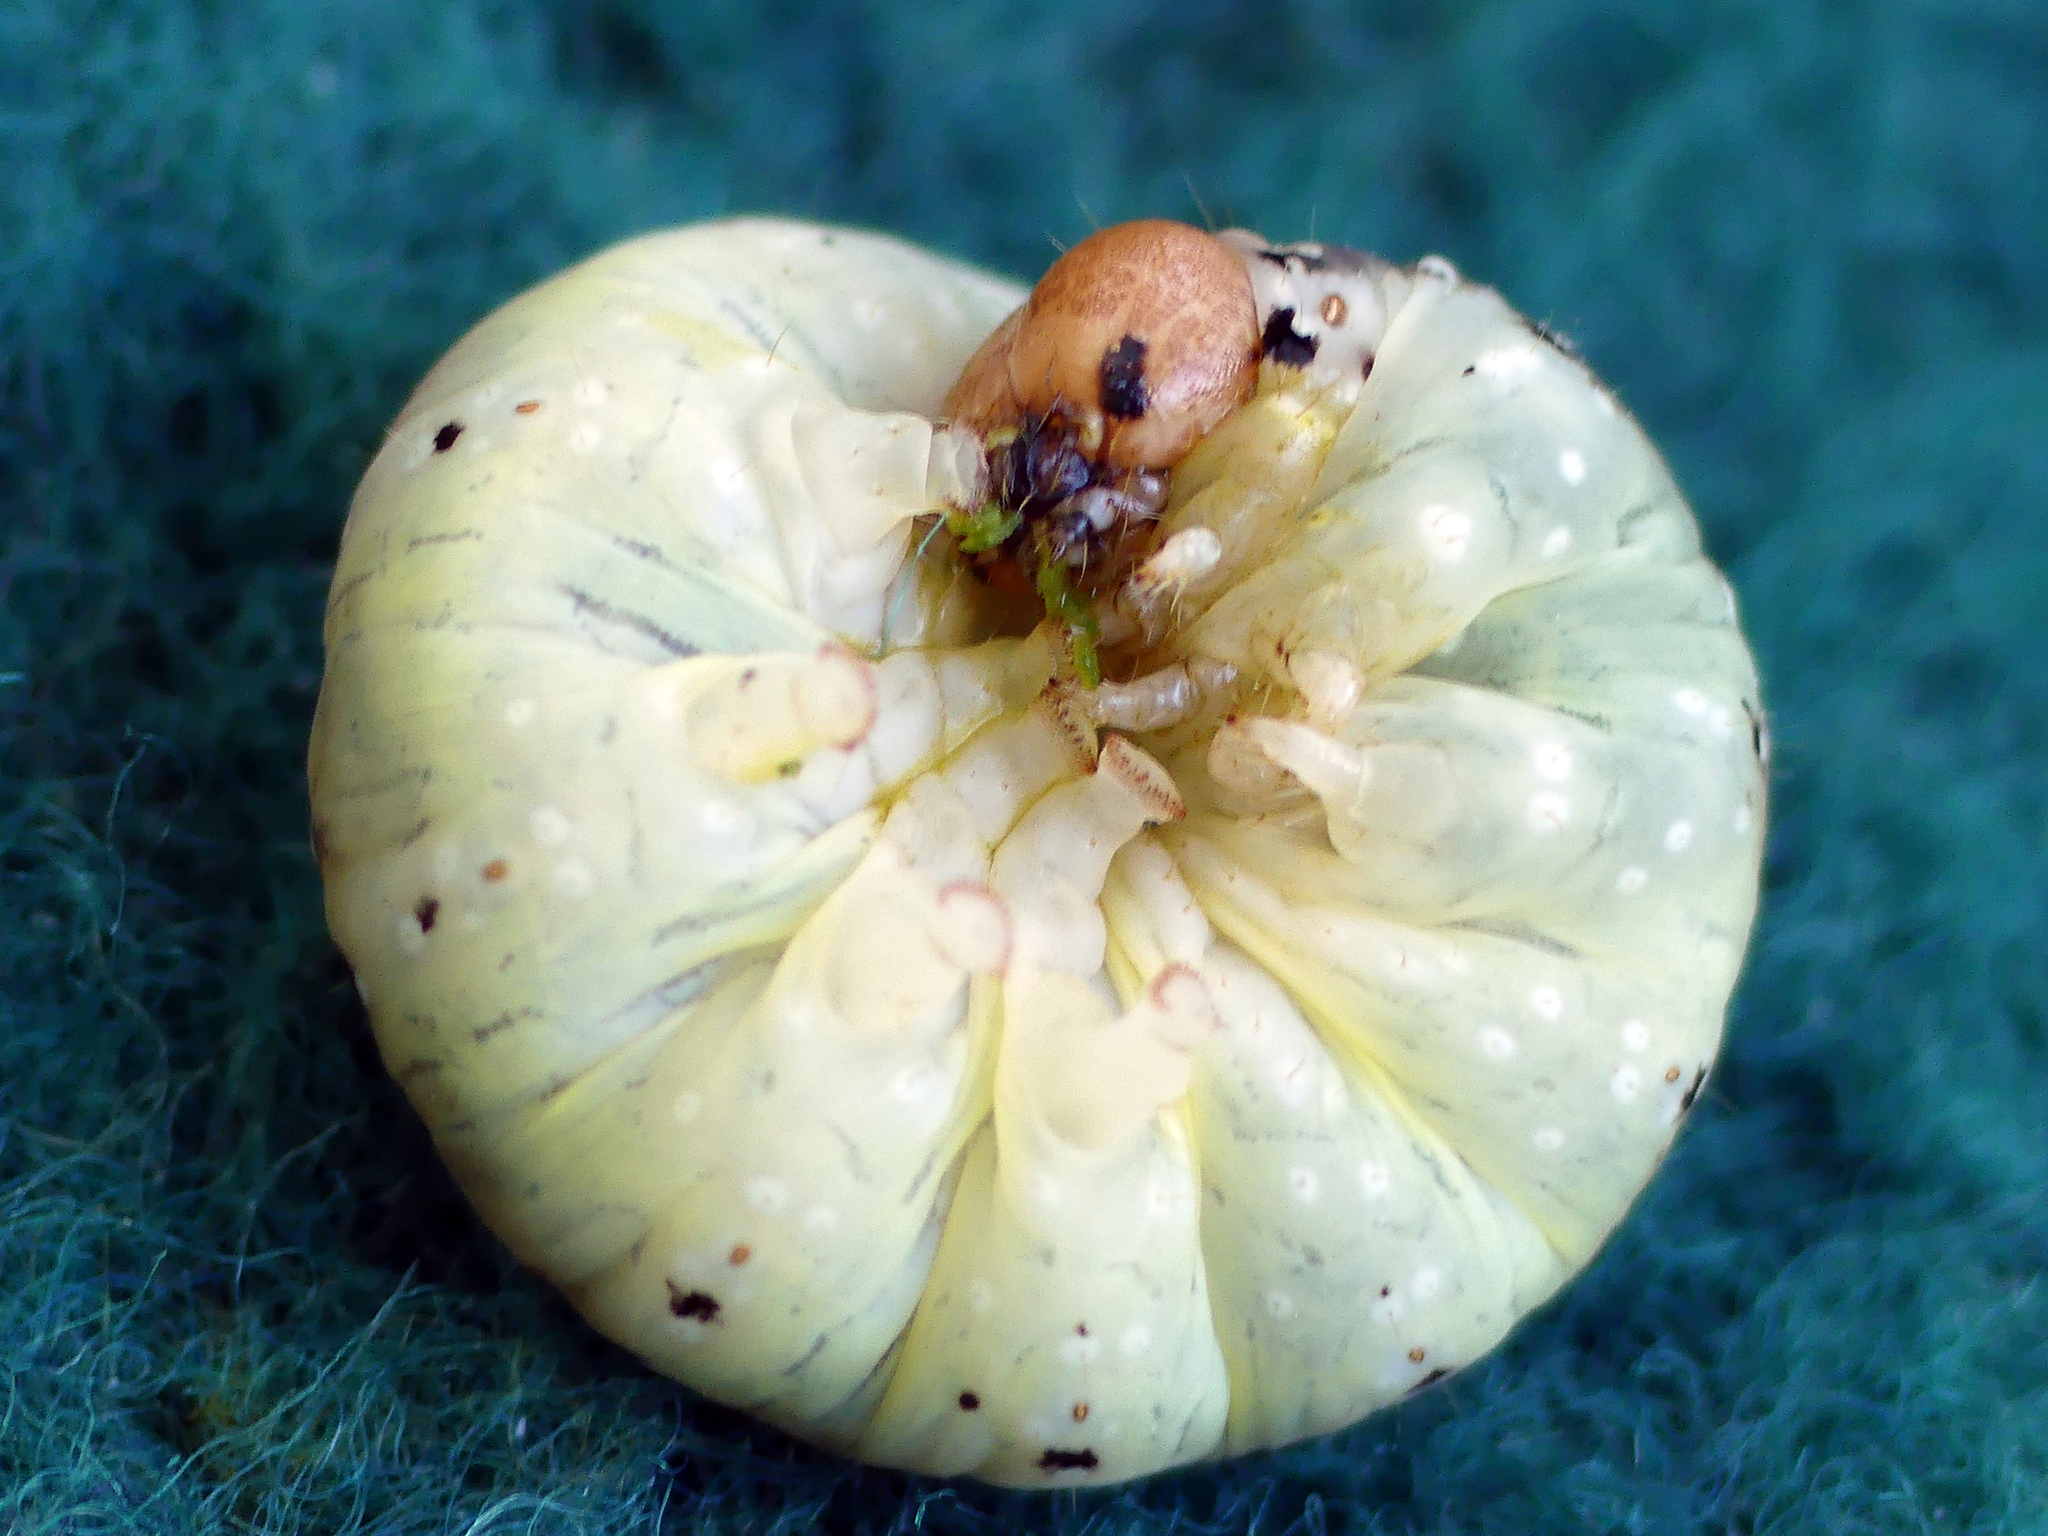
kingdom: Animalia
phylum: Arthropoda
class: Insecta
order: Lepidoptera
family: Drepanidae
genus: Achlya
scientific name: Achlya flavicornis
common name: Yellow horned
